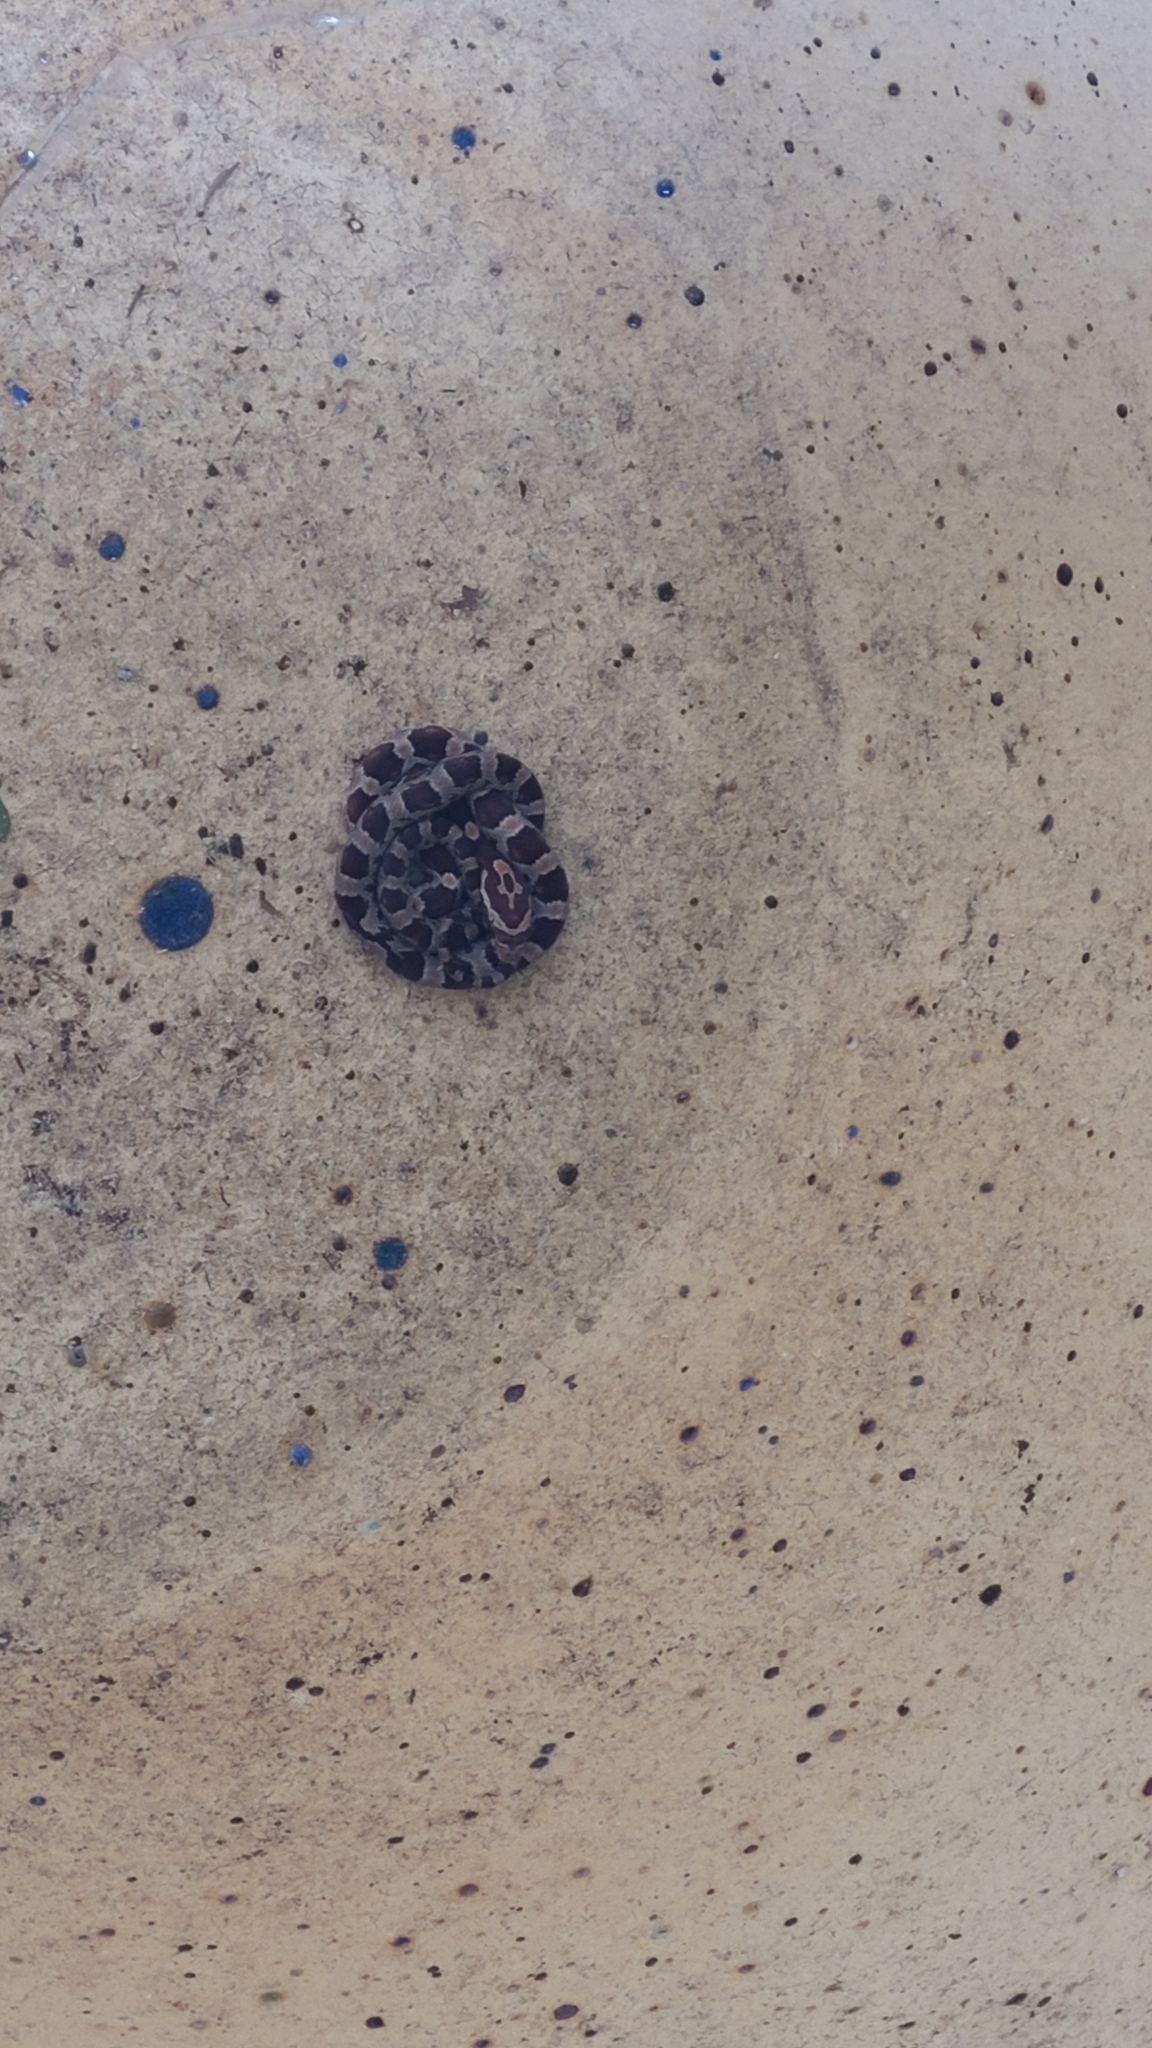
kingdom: Animalia
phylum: Chordata
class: Squamata
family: Colubridae
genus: Pantherophis
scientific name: Pantherophis guttatus
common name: Red cornsnake
